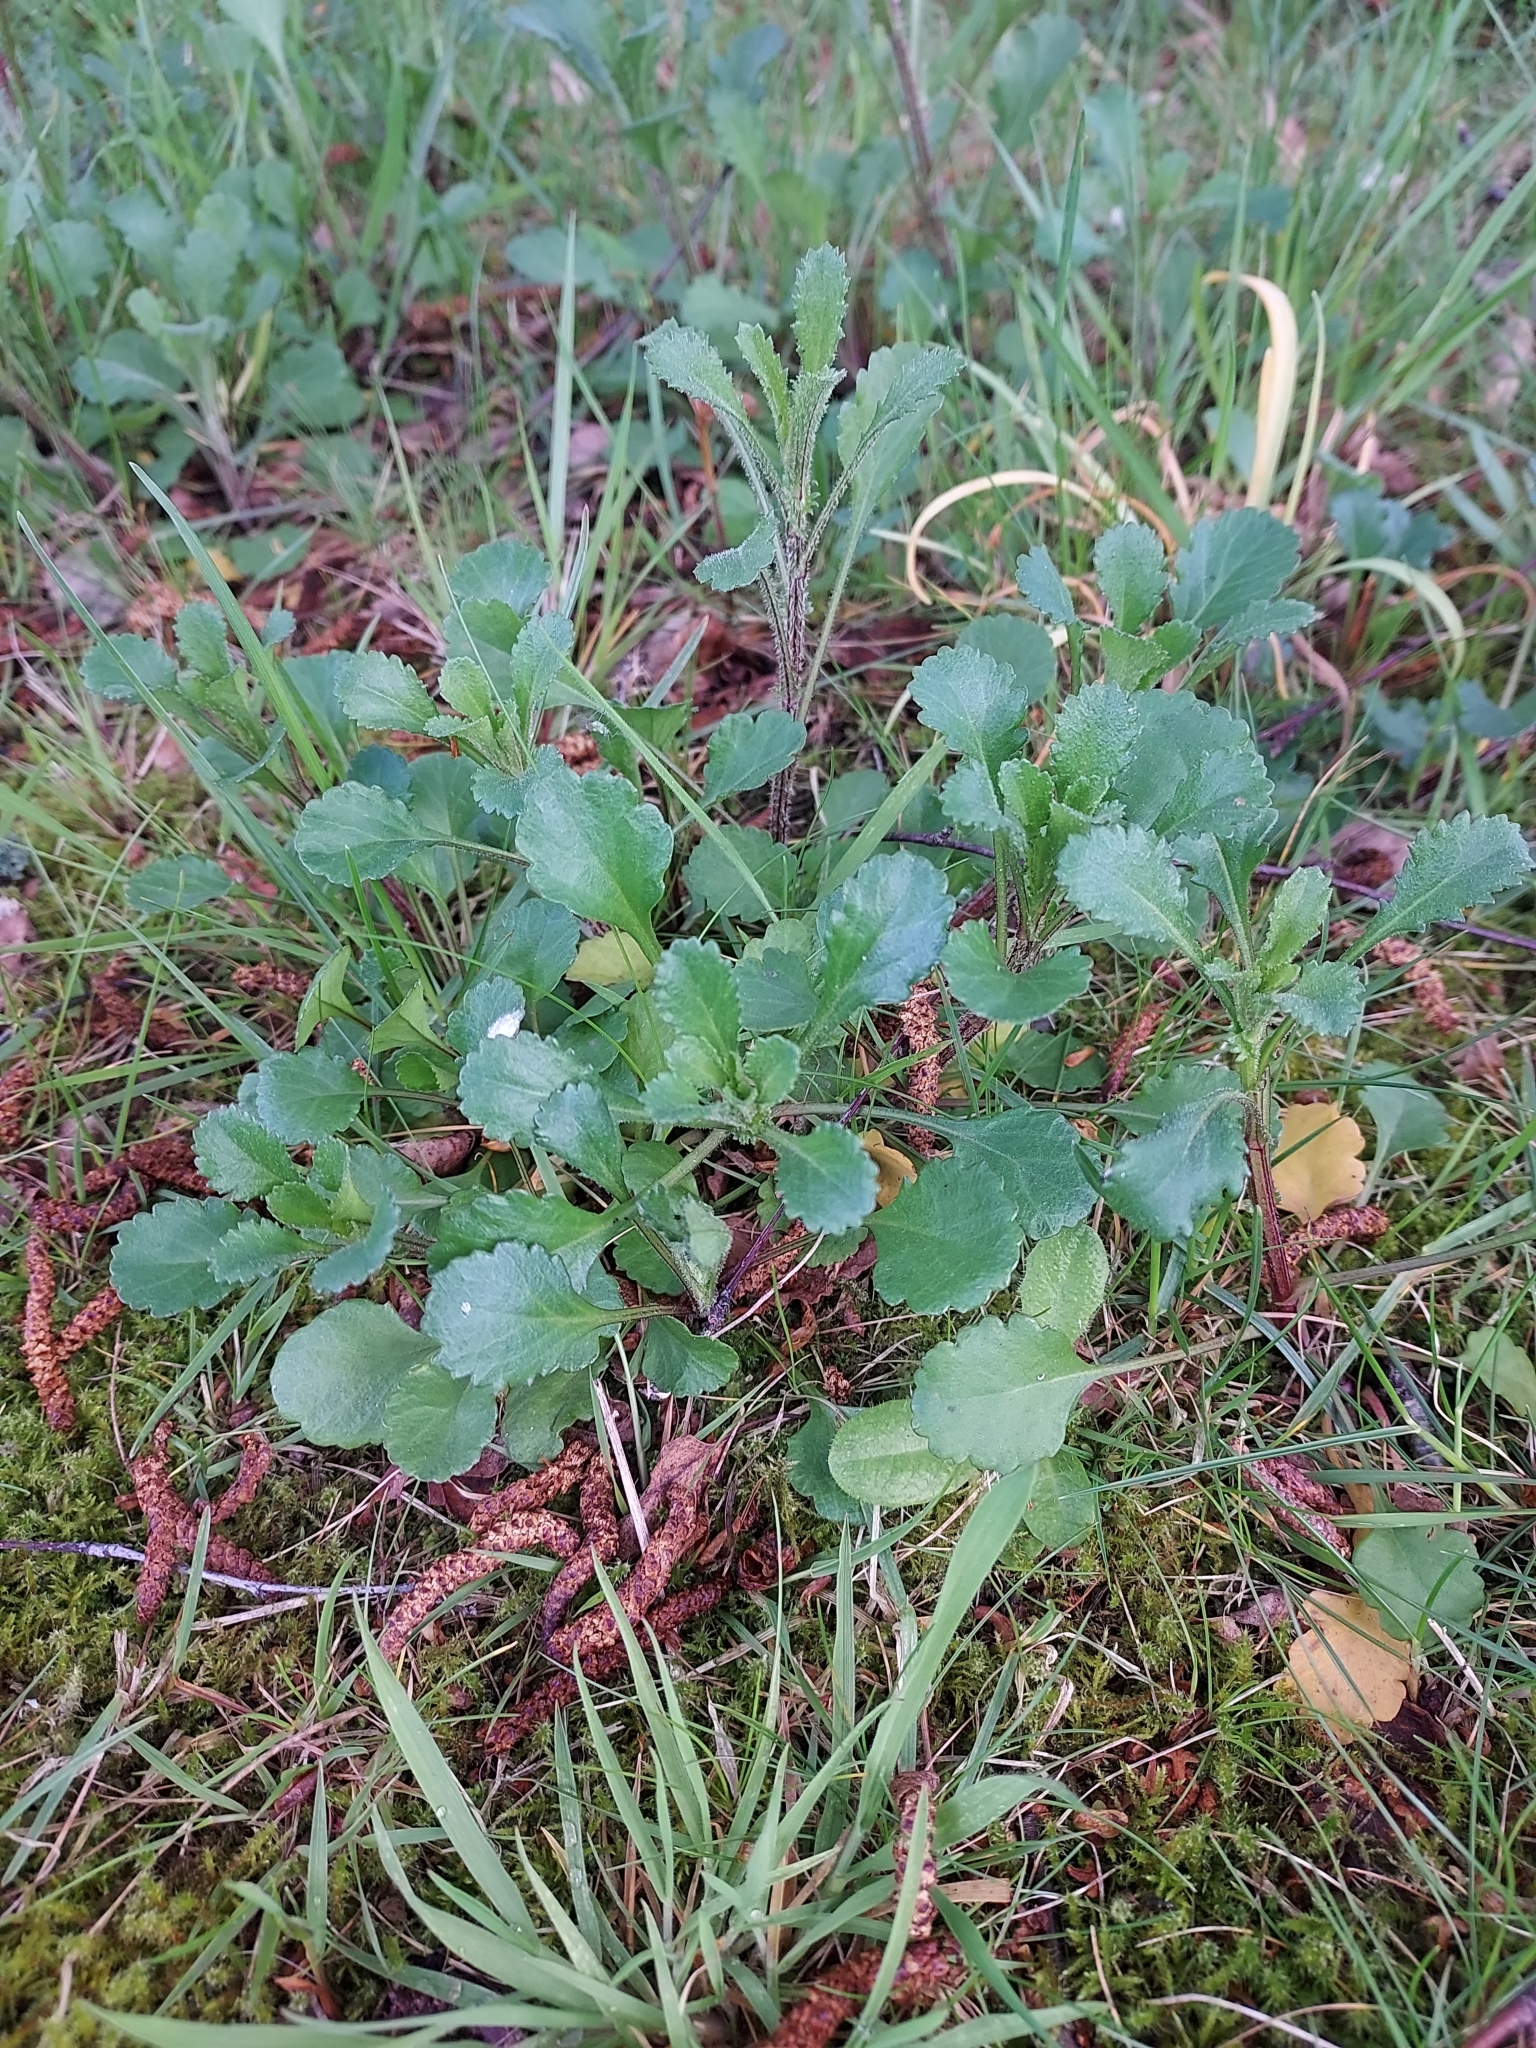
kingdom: Plantae
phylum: Tracheophyta
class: Magnoliopsida
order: Asterales
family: Asteraceae
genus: Leucanthemum
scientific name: Leucanthemum vulgare
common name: Oxeye daisy
